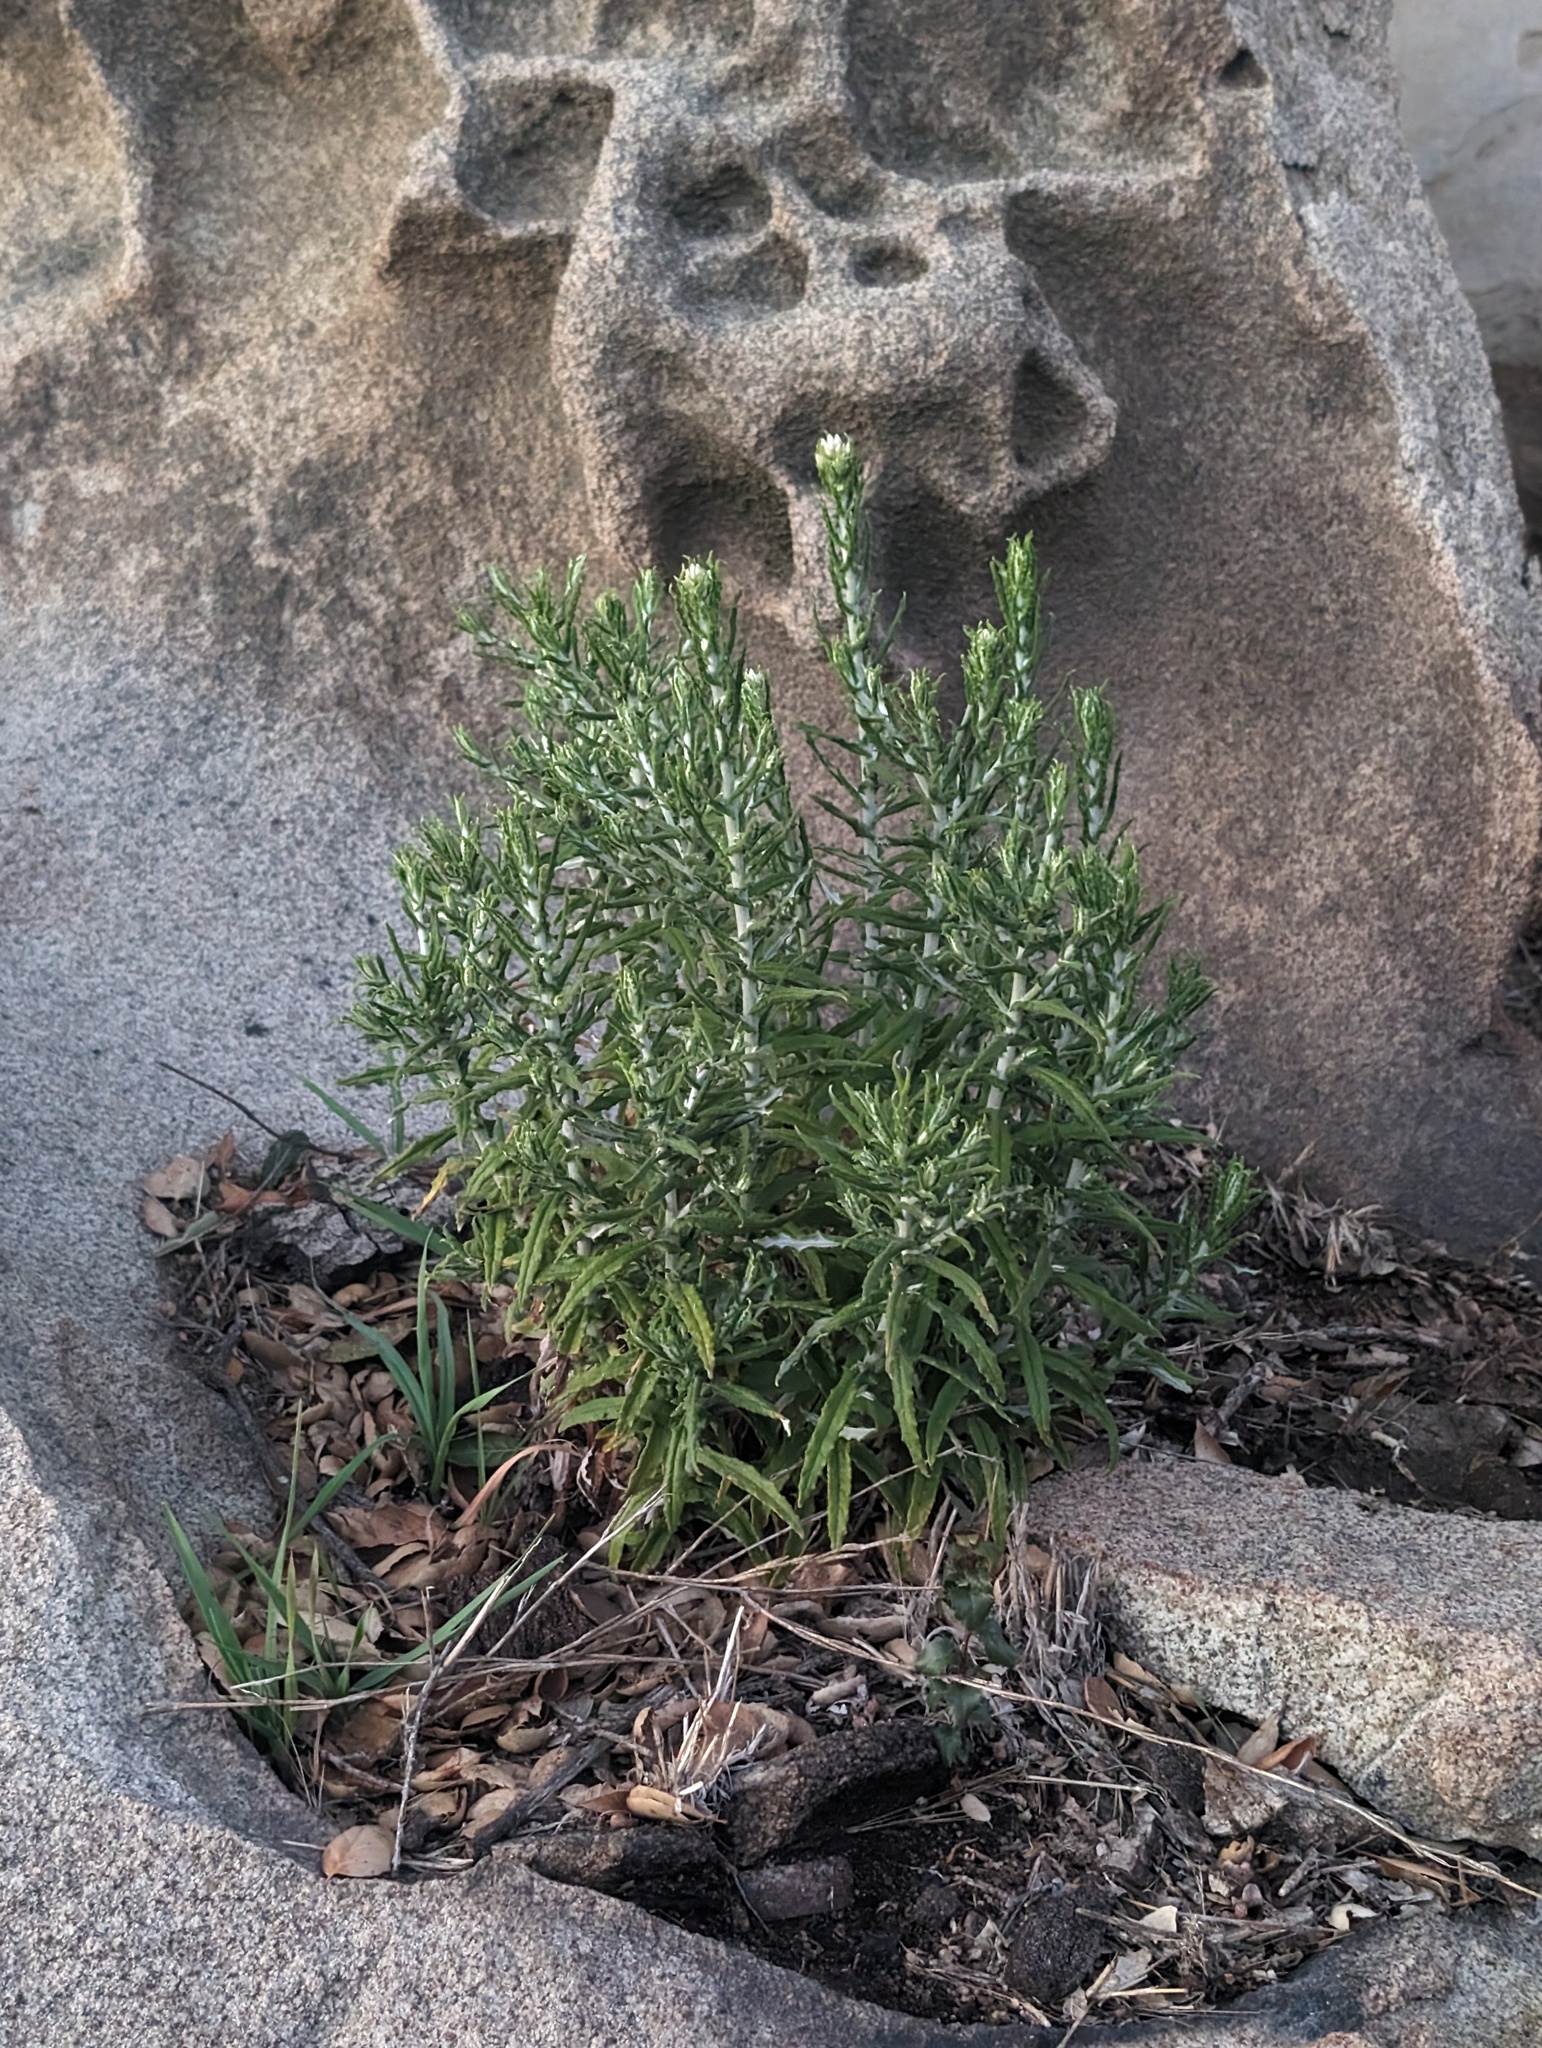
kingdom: Plantae
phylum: Tracheophyta
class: Magnoliopsida
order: Asterales
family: Asteraceae
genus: Pseudognaphalium
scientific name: Pseudognaphalium biolettii
